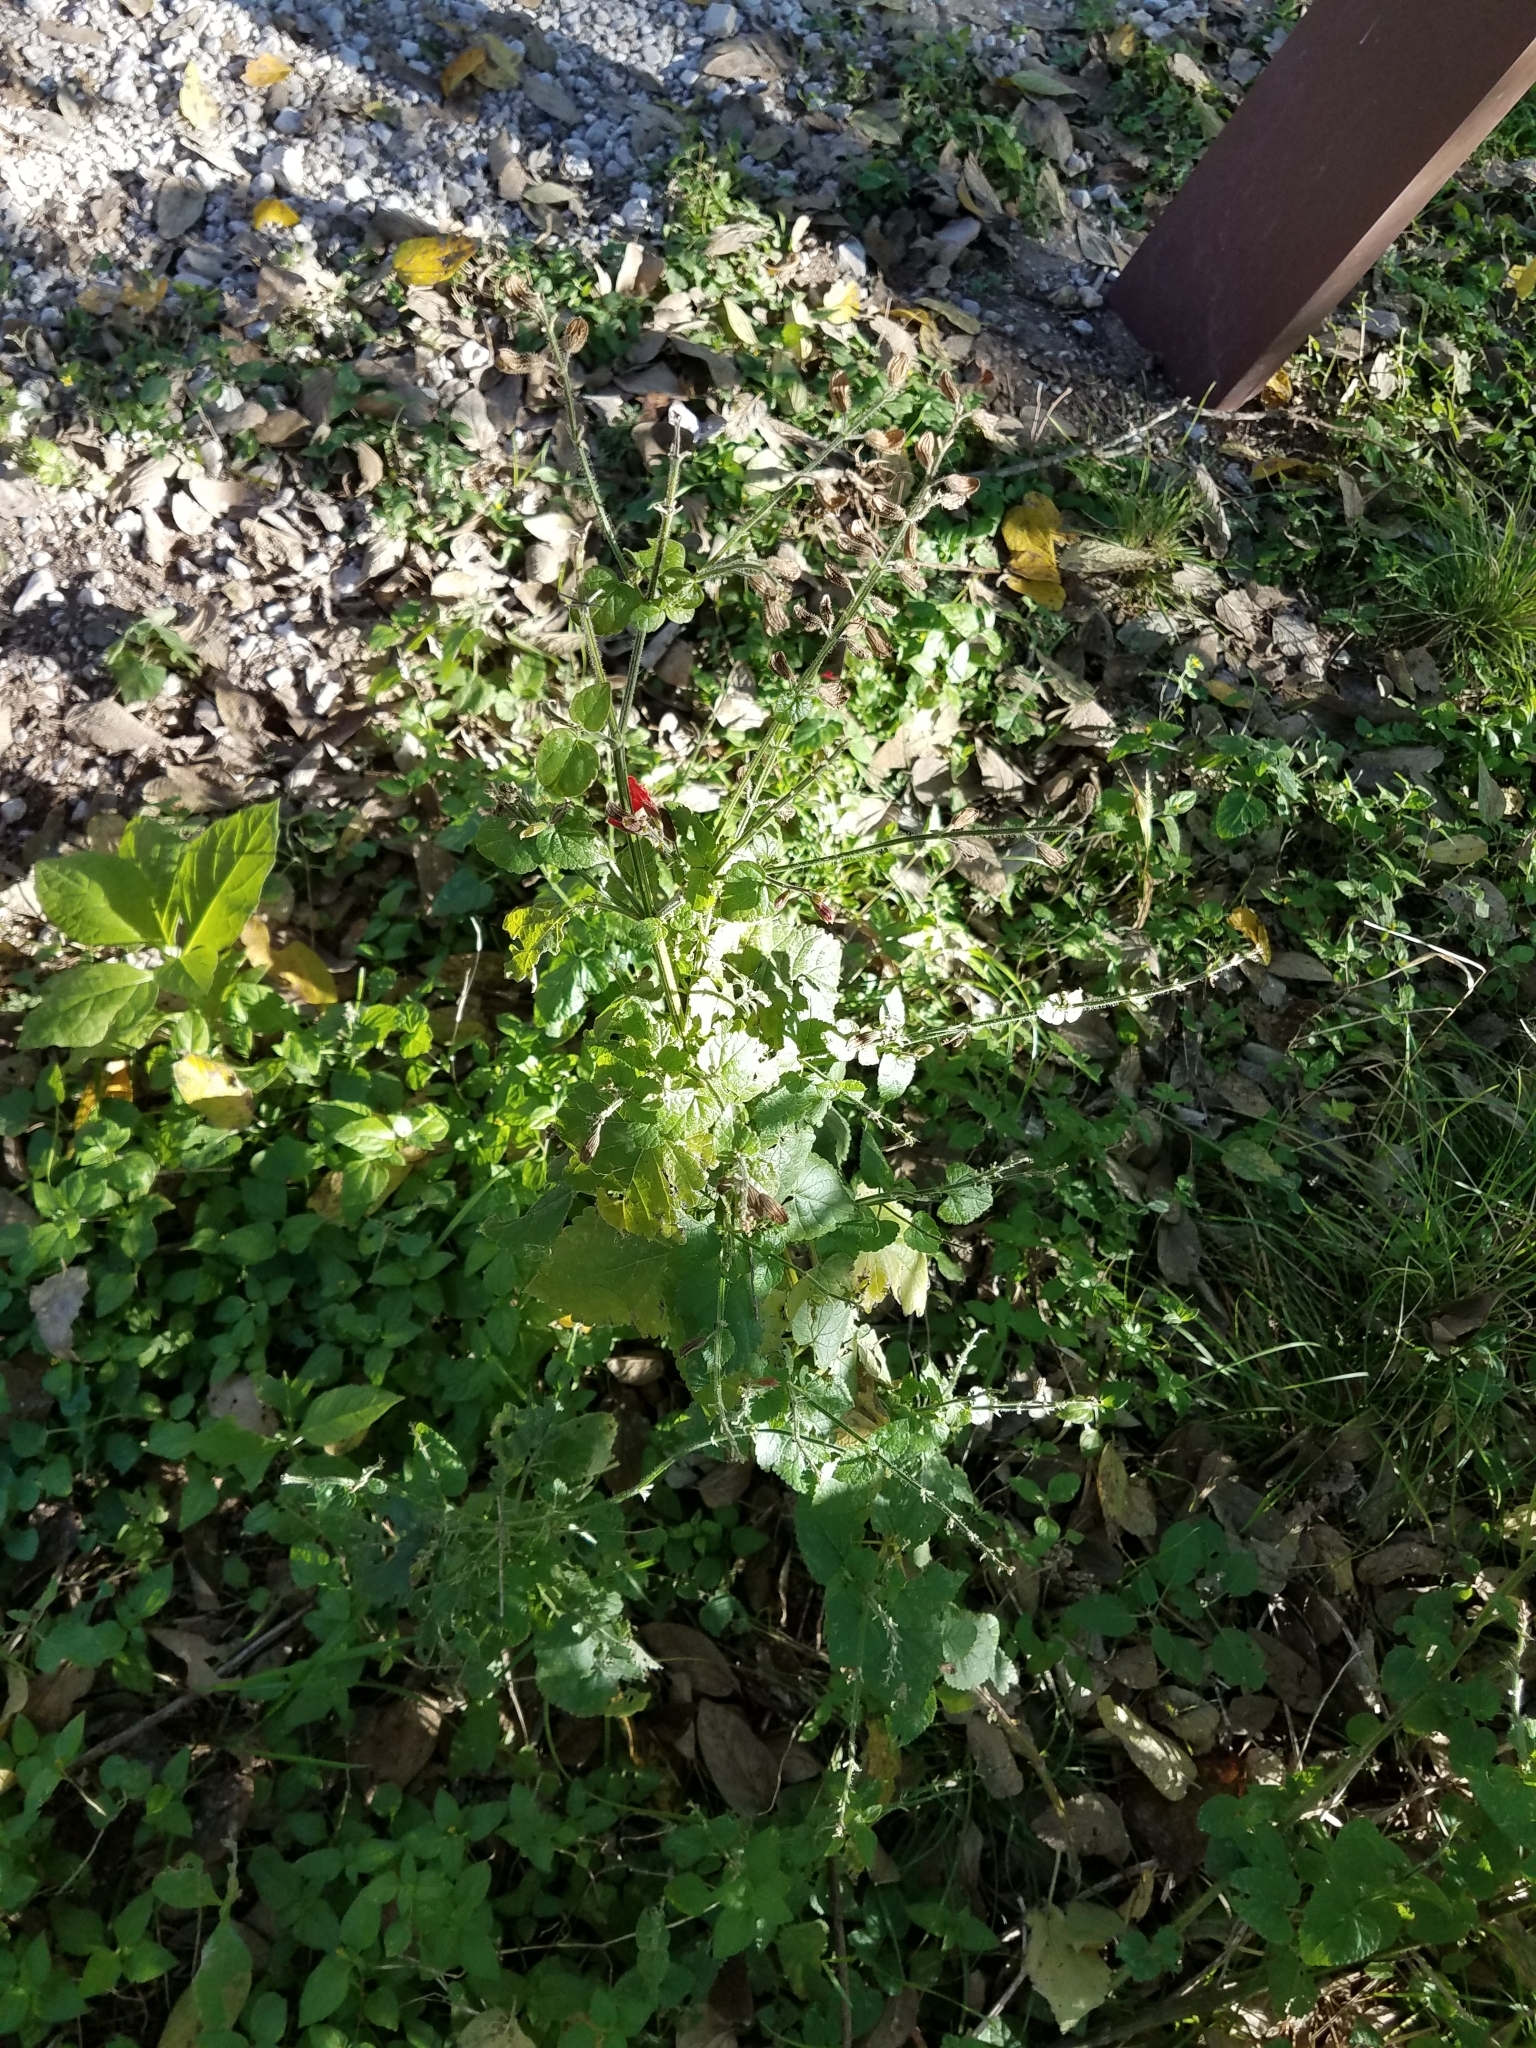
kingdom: Plantae
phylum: Tracheophyta
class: Magnoliopsida
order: Lamiales
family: Lamiaceae
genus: Salvia
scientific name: Salvia coccinea
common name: Blood sage
